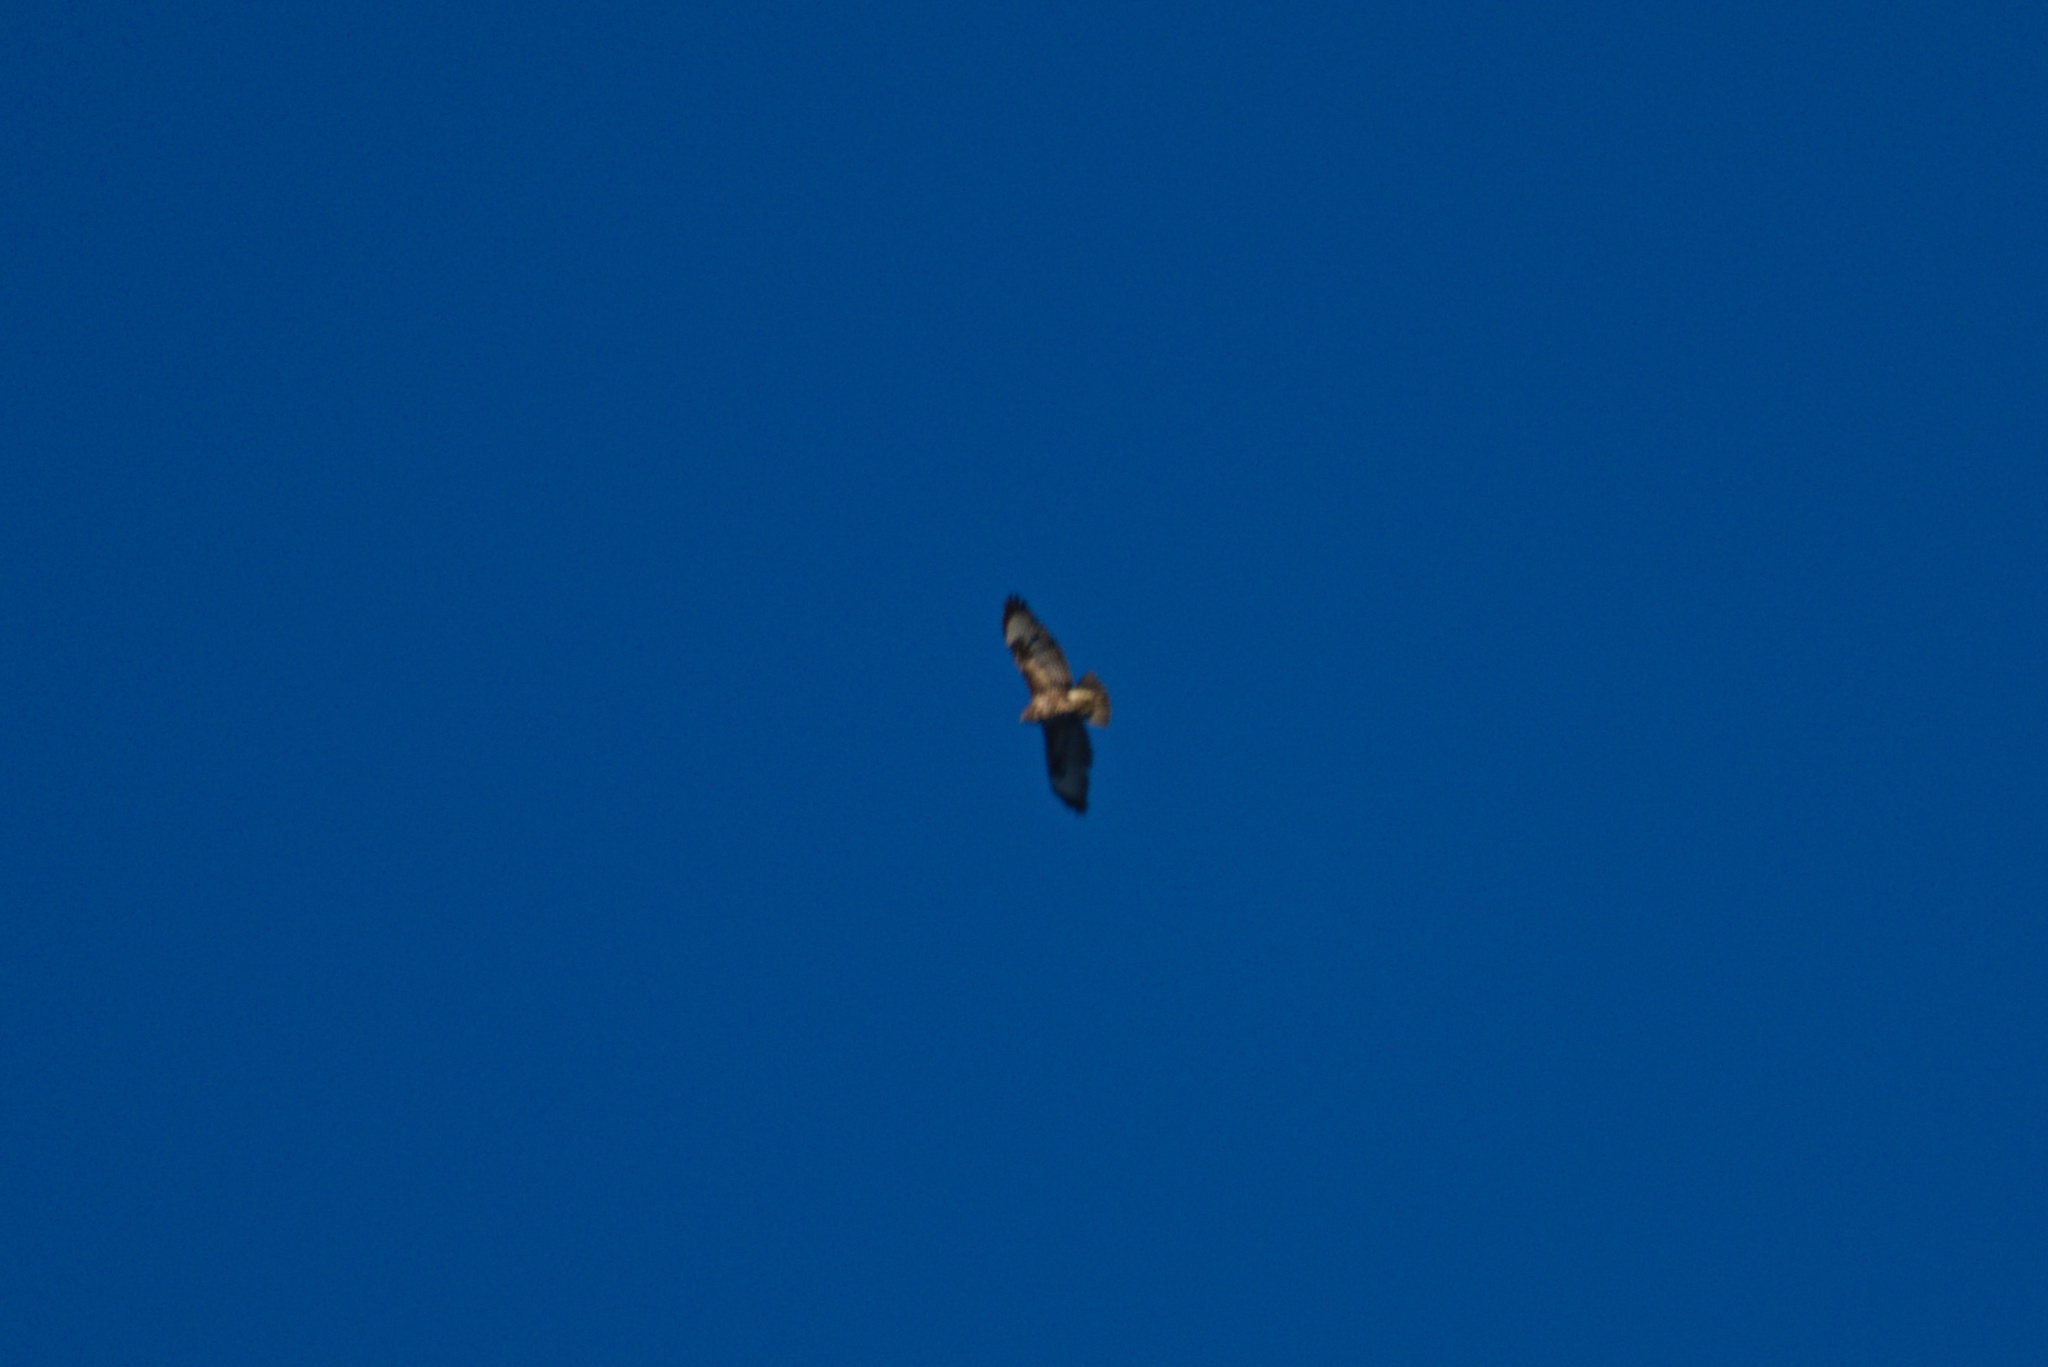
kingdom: Animalia
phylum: Chordata
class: Aves
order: Accipitriformes
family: Accipitridae
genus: Buteo
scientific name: Buteo buteo
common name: Common buzzard
